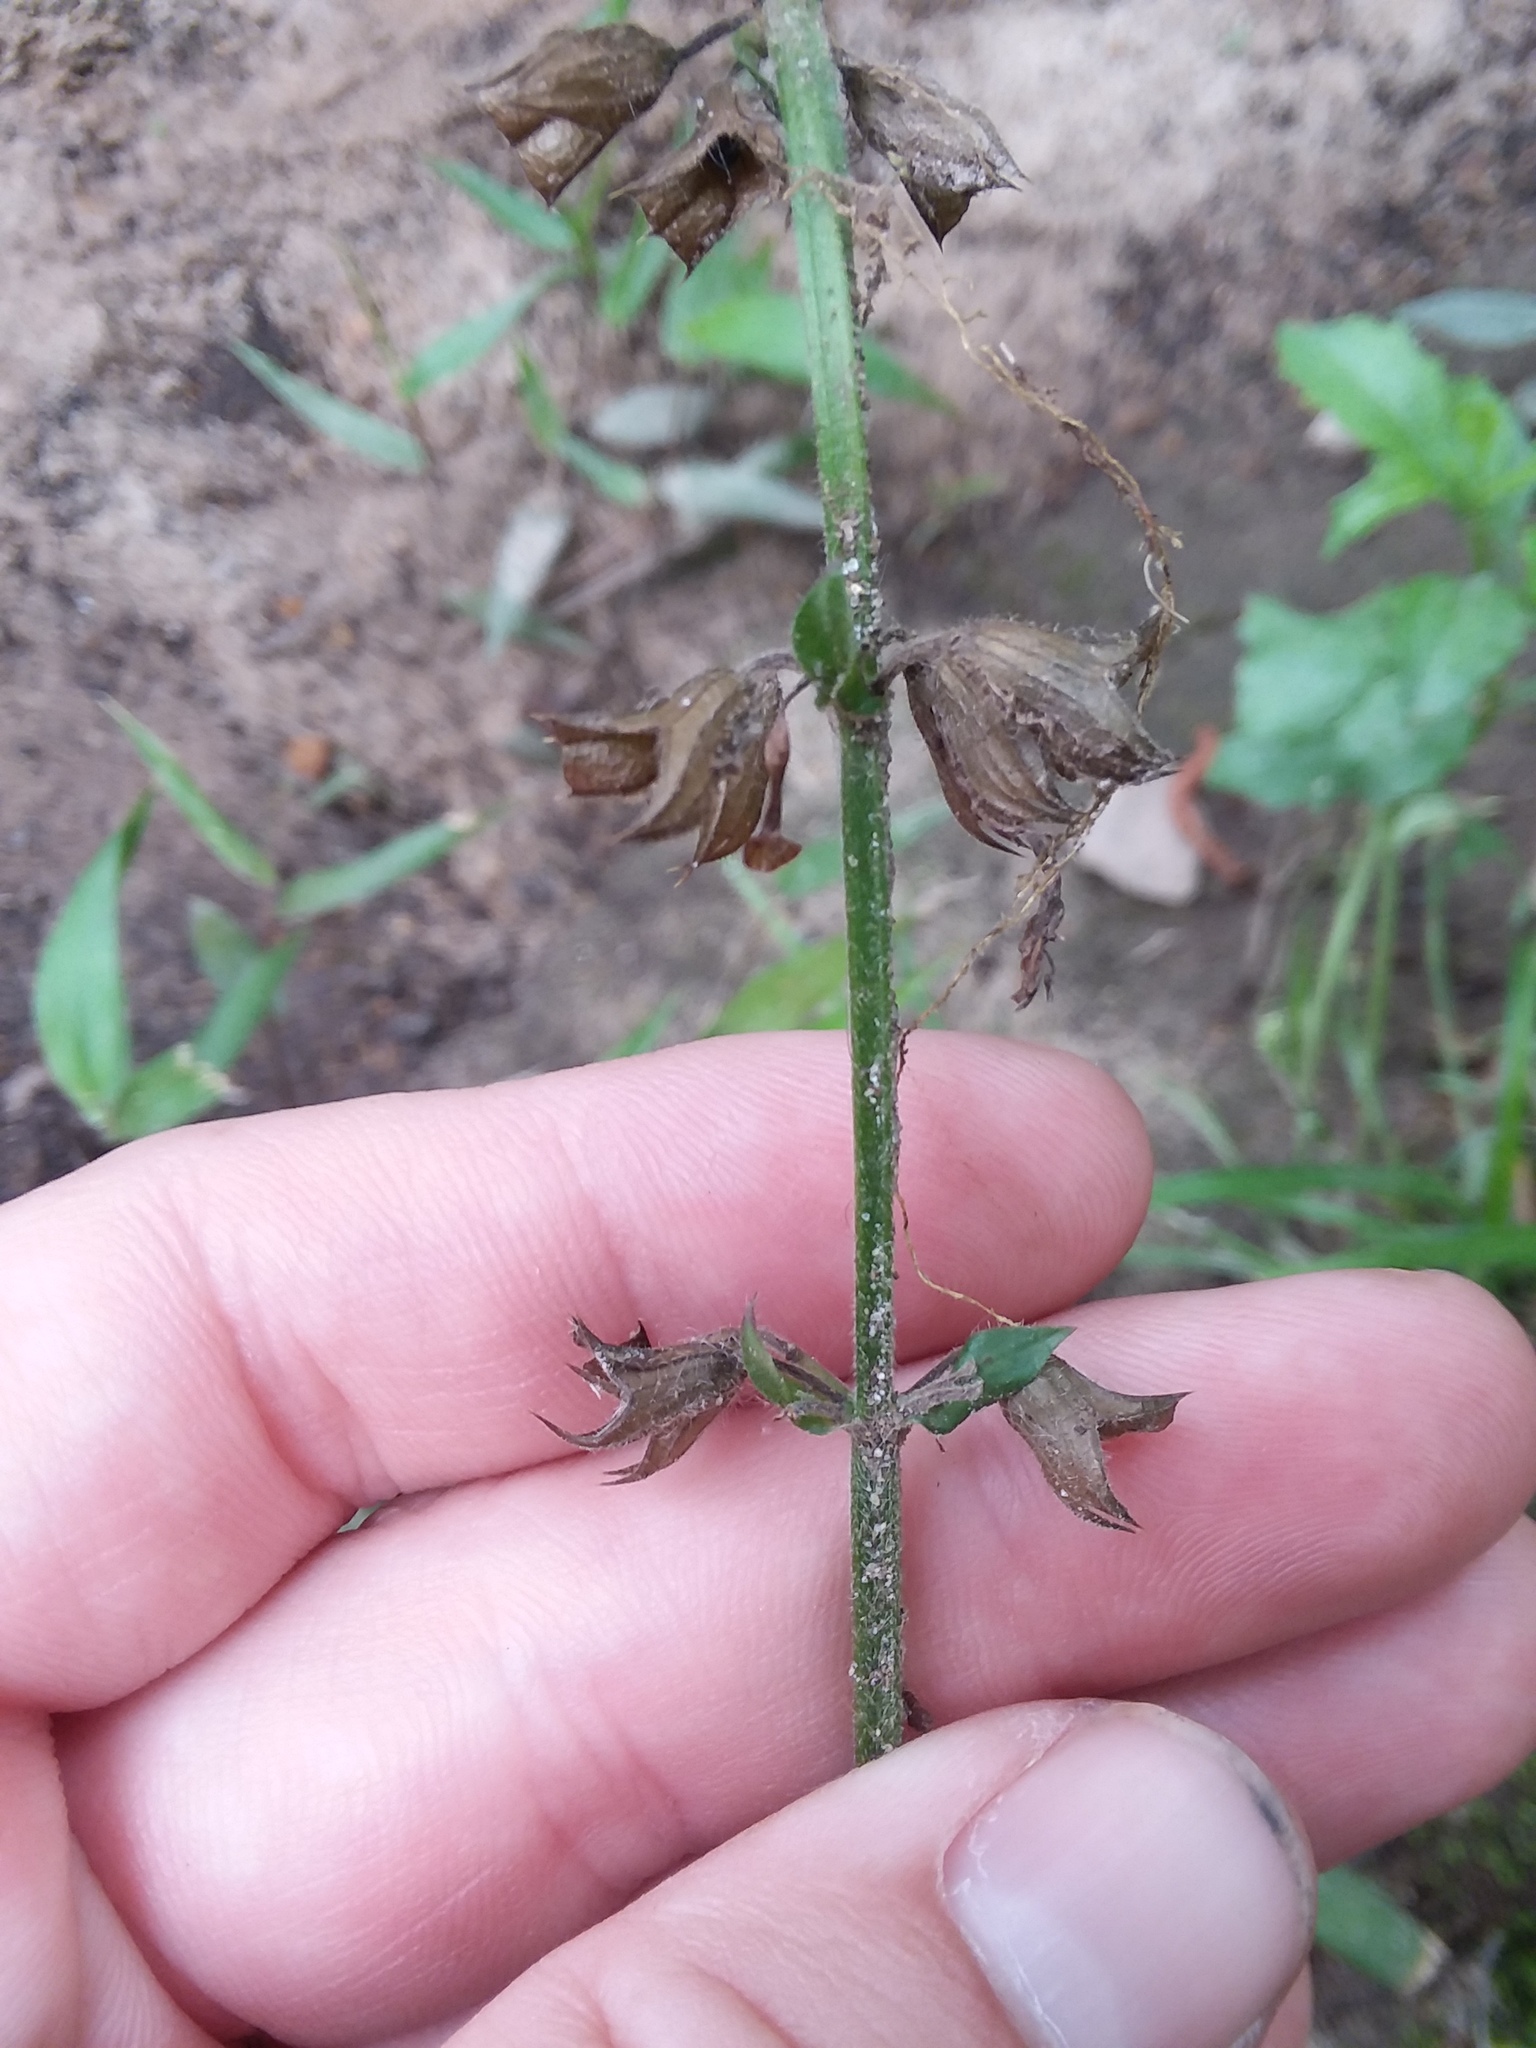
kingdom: Plantae
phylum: Tracheophyta
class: Magnoliopsida
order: Lamiales
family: Lamiaceae
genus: Salvia
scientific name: Salvia lyrata
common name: Cancerweed
